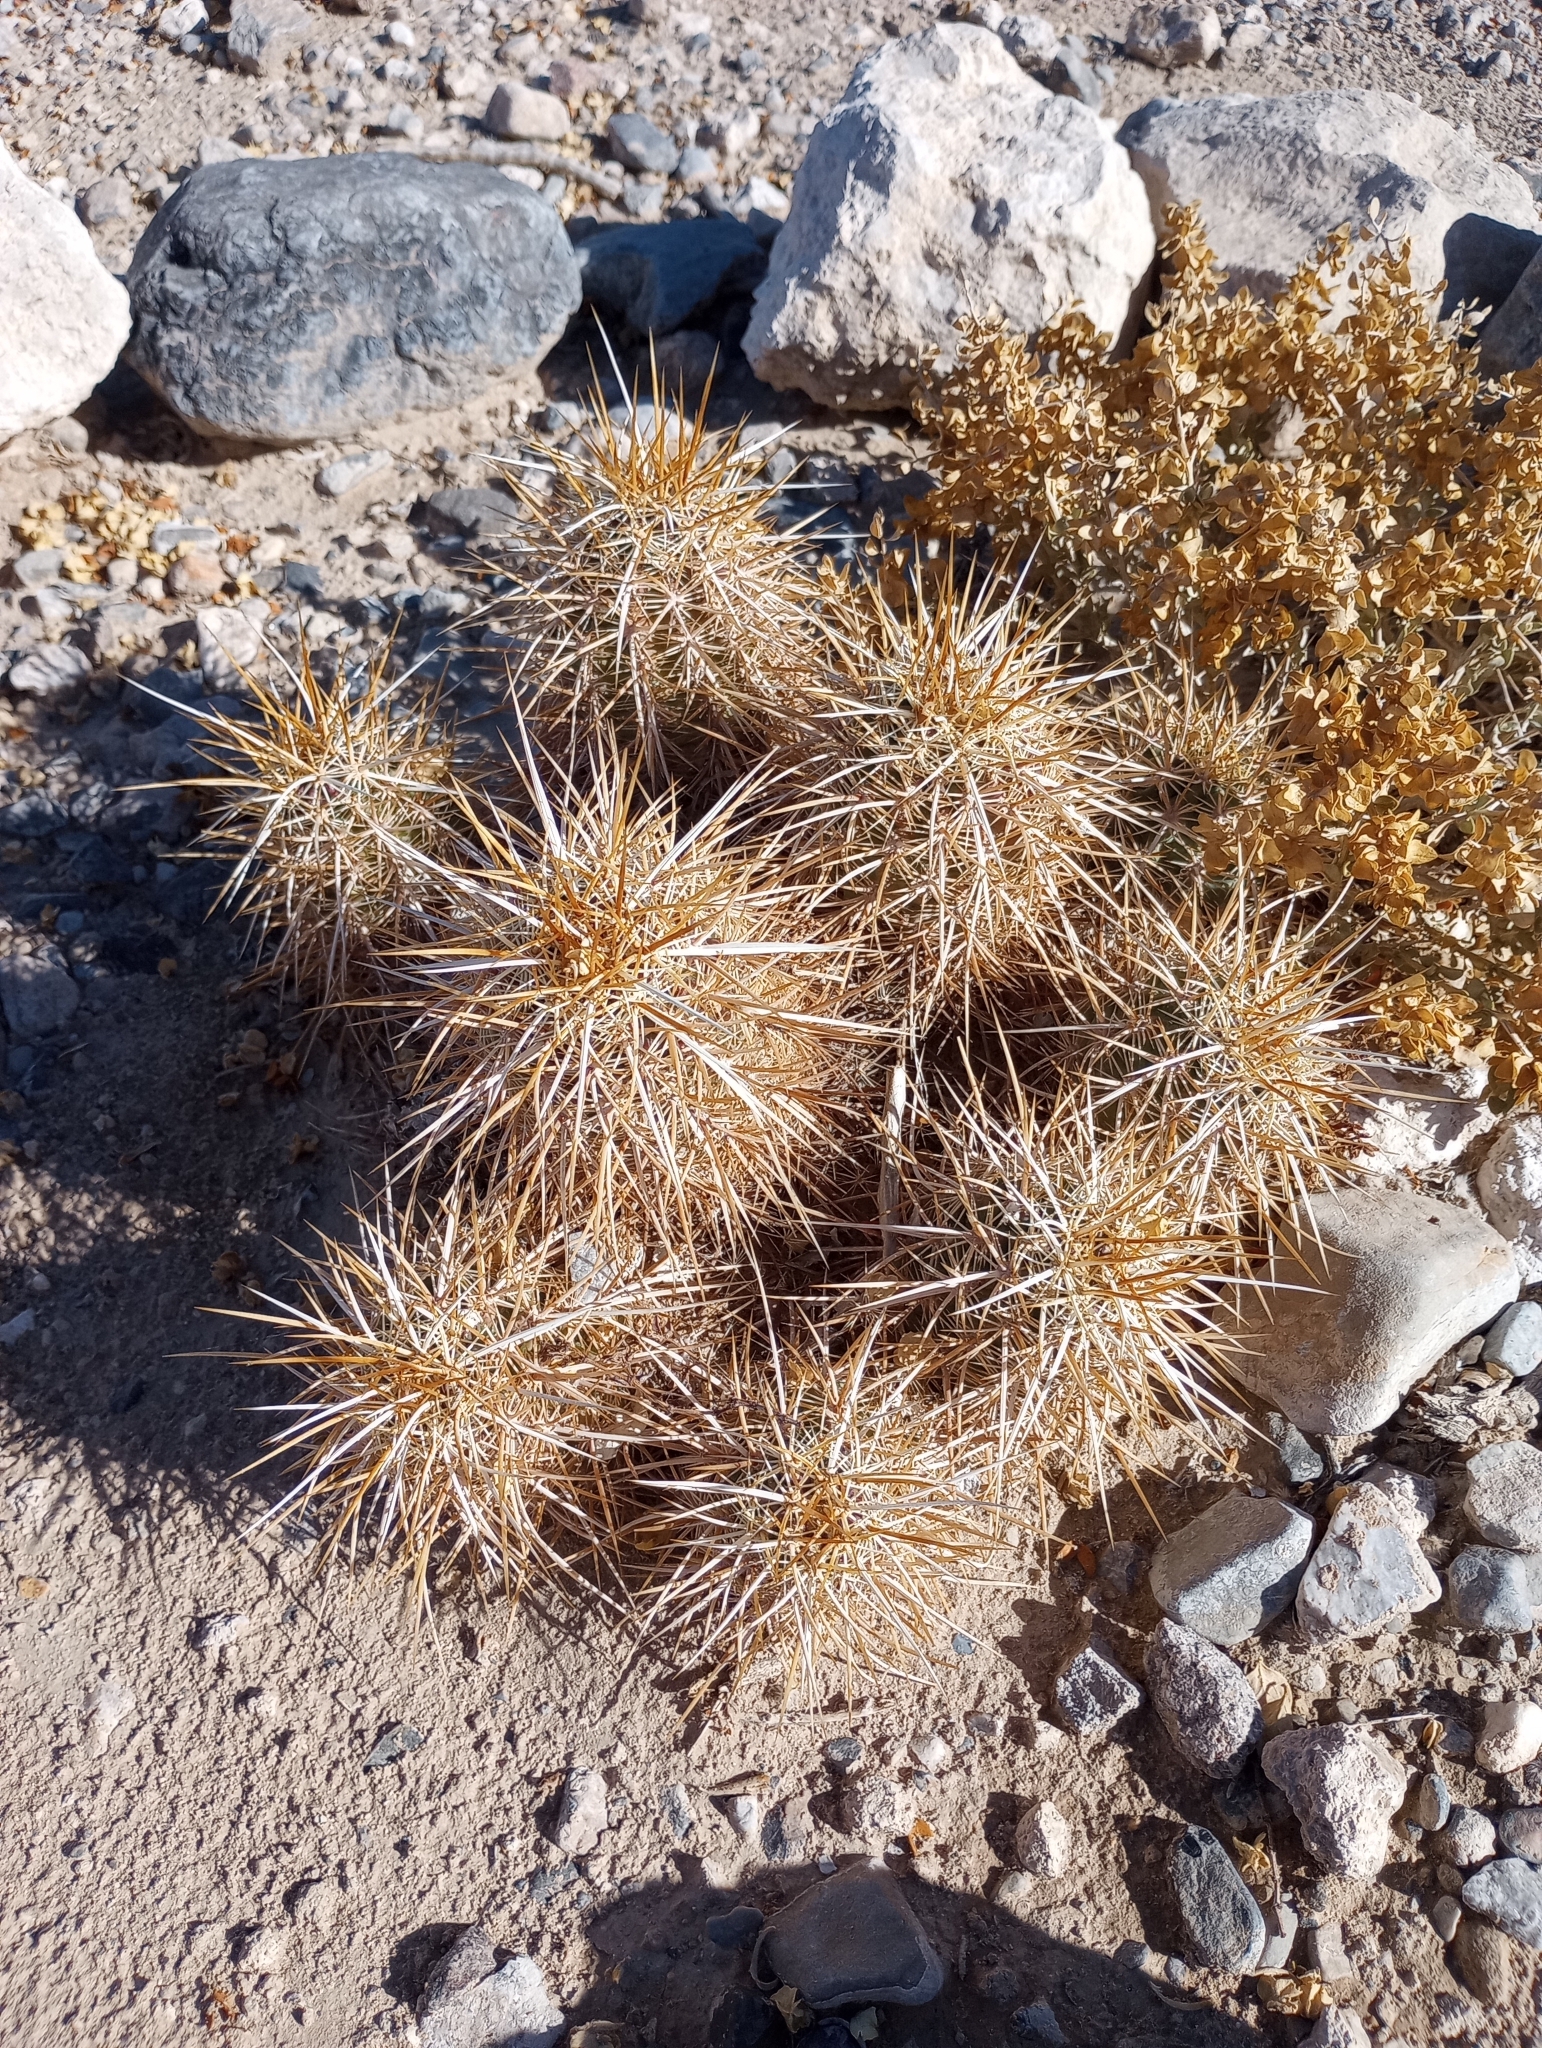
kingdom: Plantae
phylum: Tracheophyta
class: Magnoliopsida
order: Caryophyllales
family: Cactaceae
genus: Echinocereus
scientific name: Echinocereus engelmannii
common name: Engelmann's hedgehog cactus
